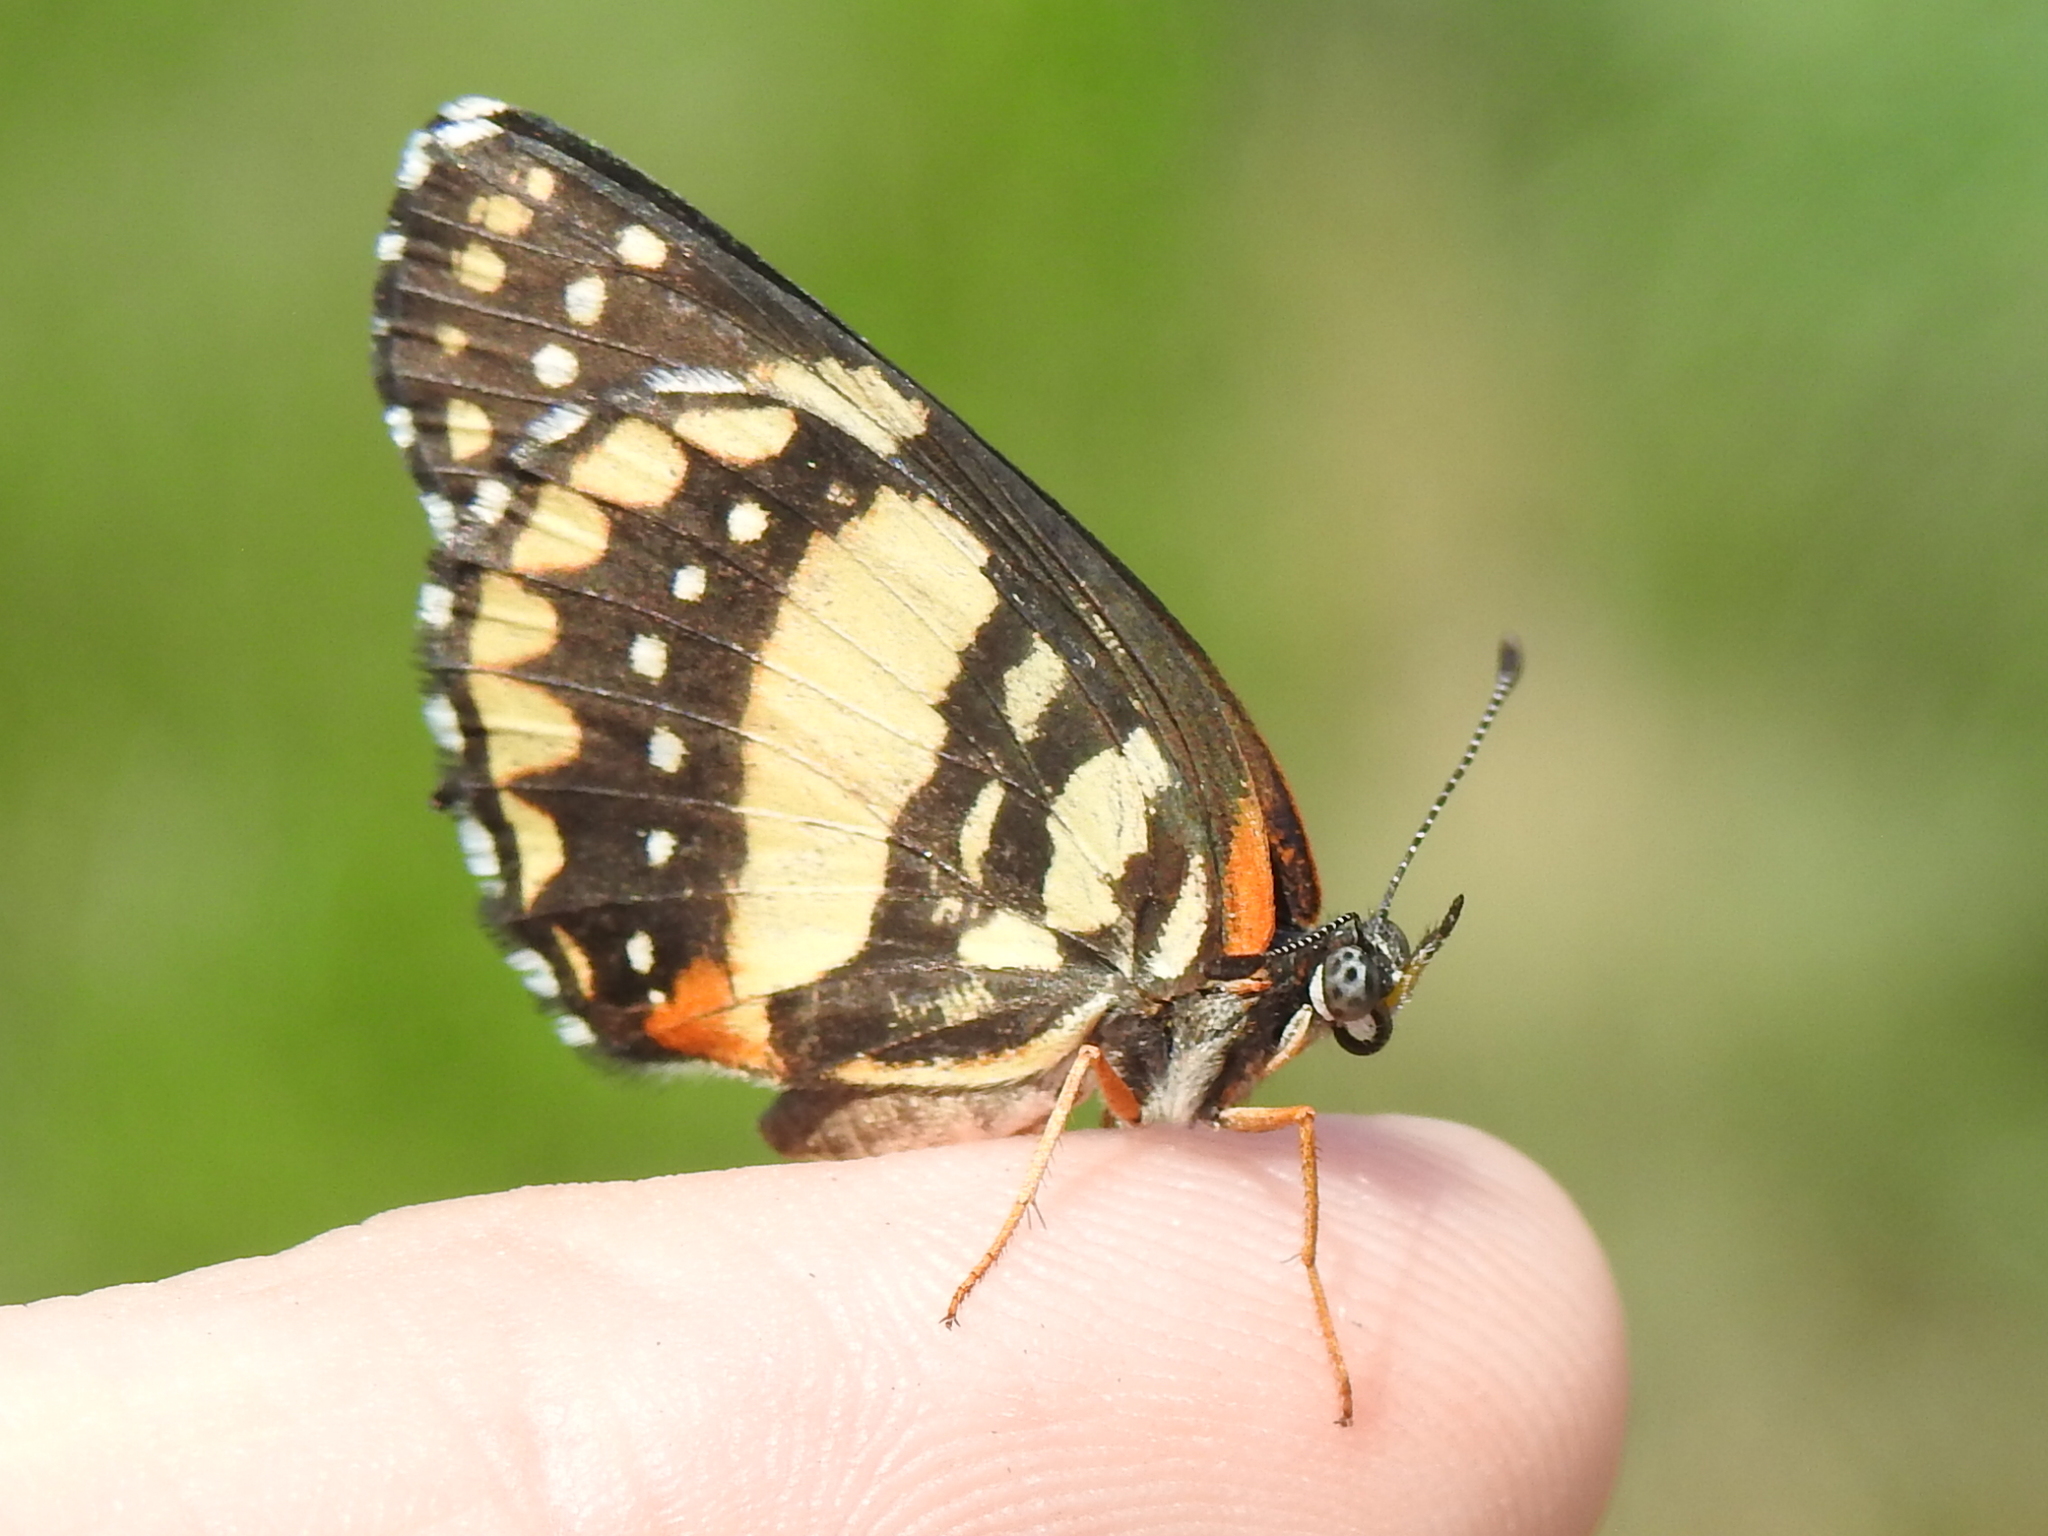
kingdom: Animalia
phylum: Arthropoda
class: Insecta
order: Lepidoptera
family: Nymphalidae
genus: Chlosyne
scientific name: Chlosyne lacinia
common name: Bordered patch
